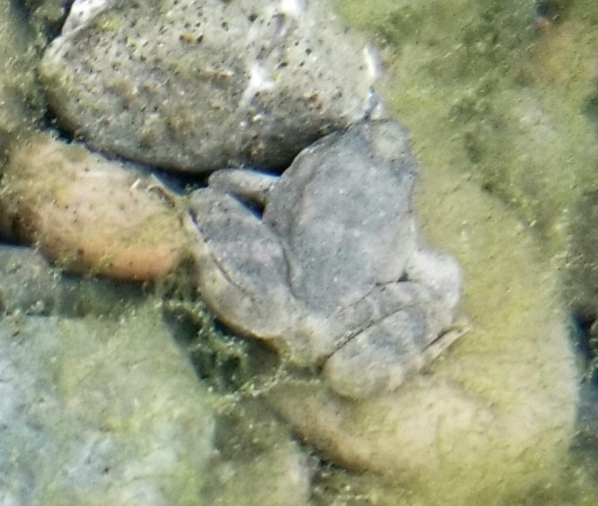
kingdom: Animalia
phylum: Chordata
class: Amphibia
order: Anura
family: Ranidae
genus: Rana
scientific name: Rana boylii
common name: Foothill yellow-legged frog
